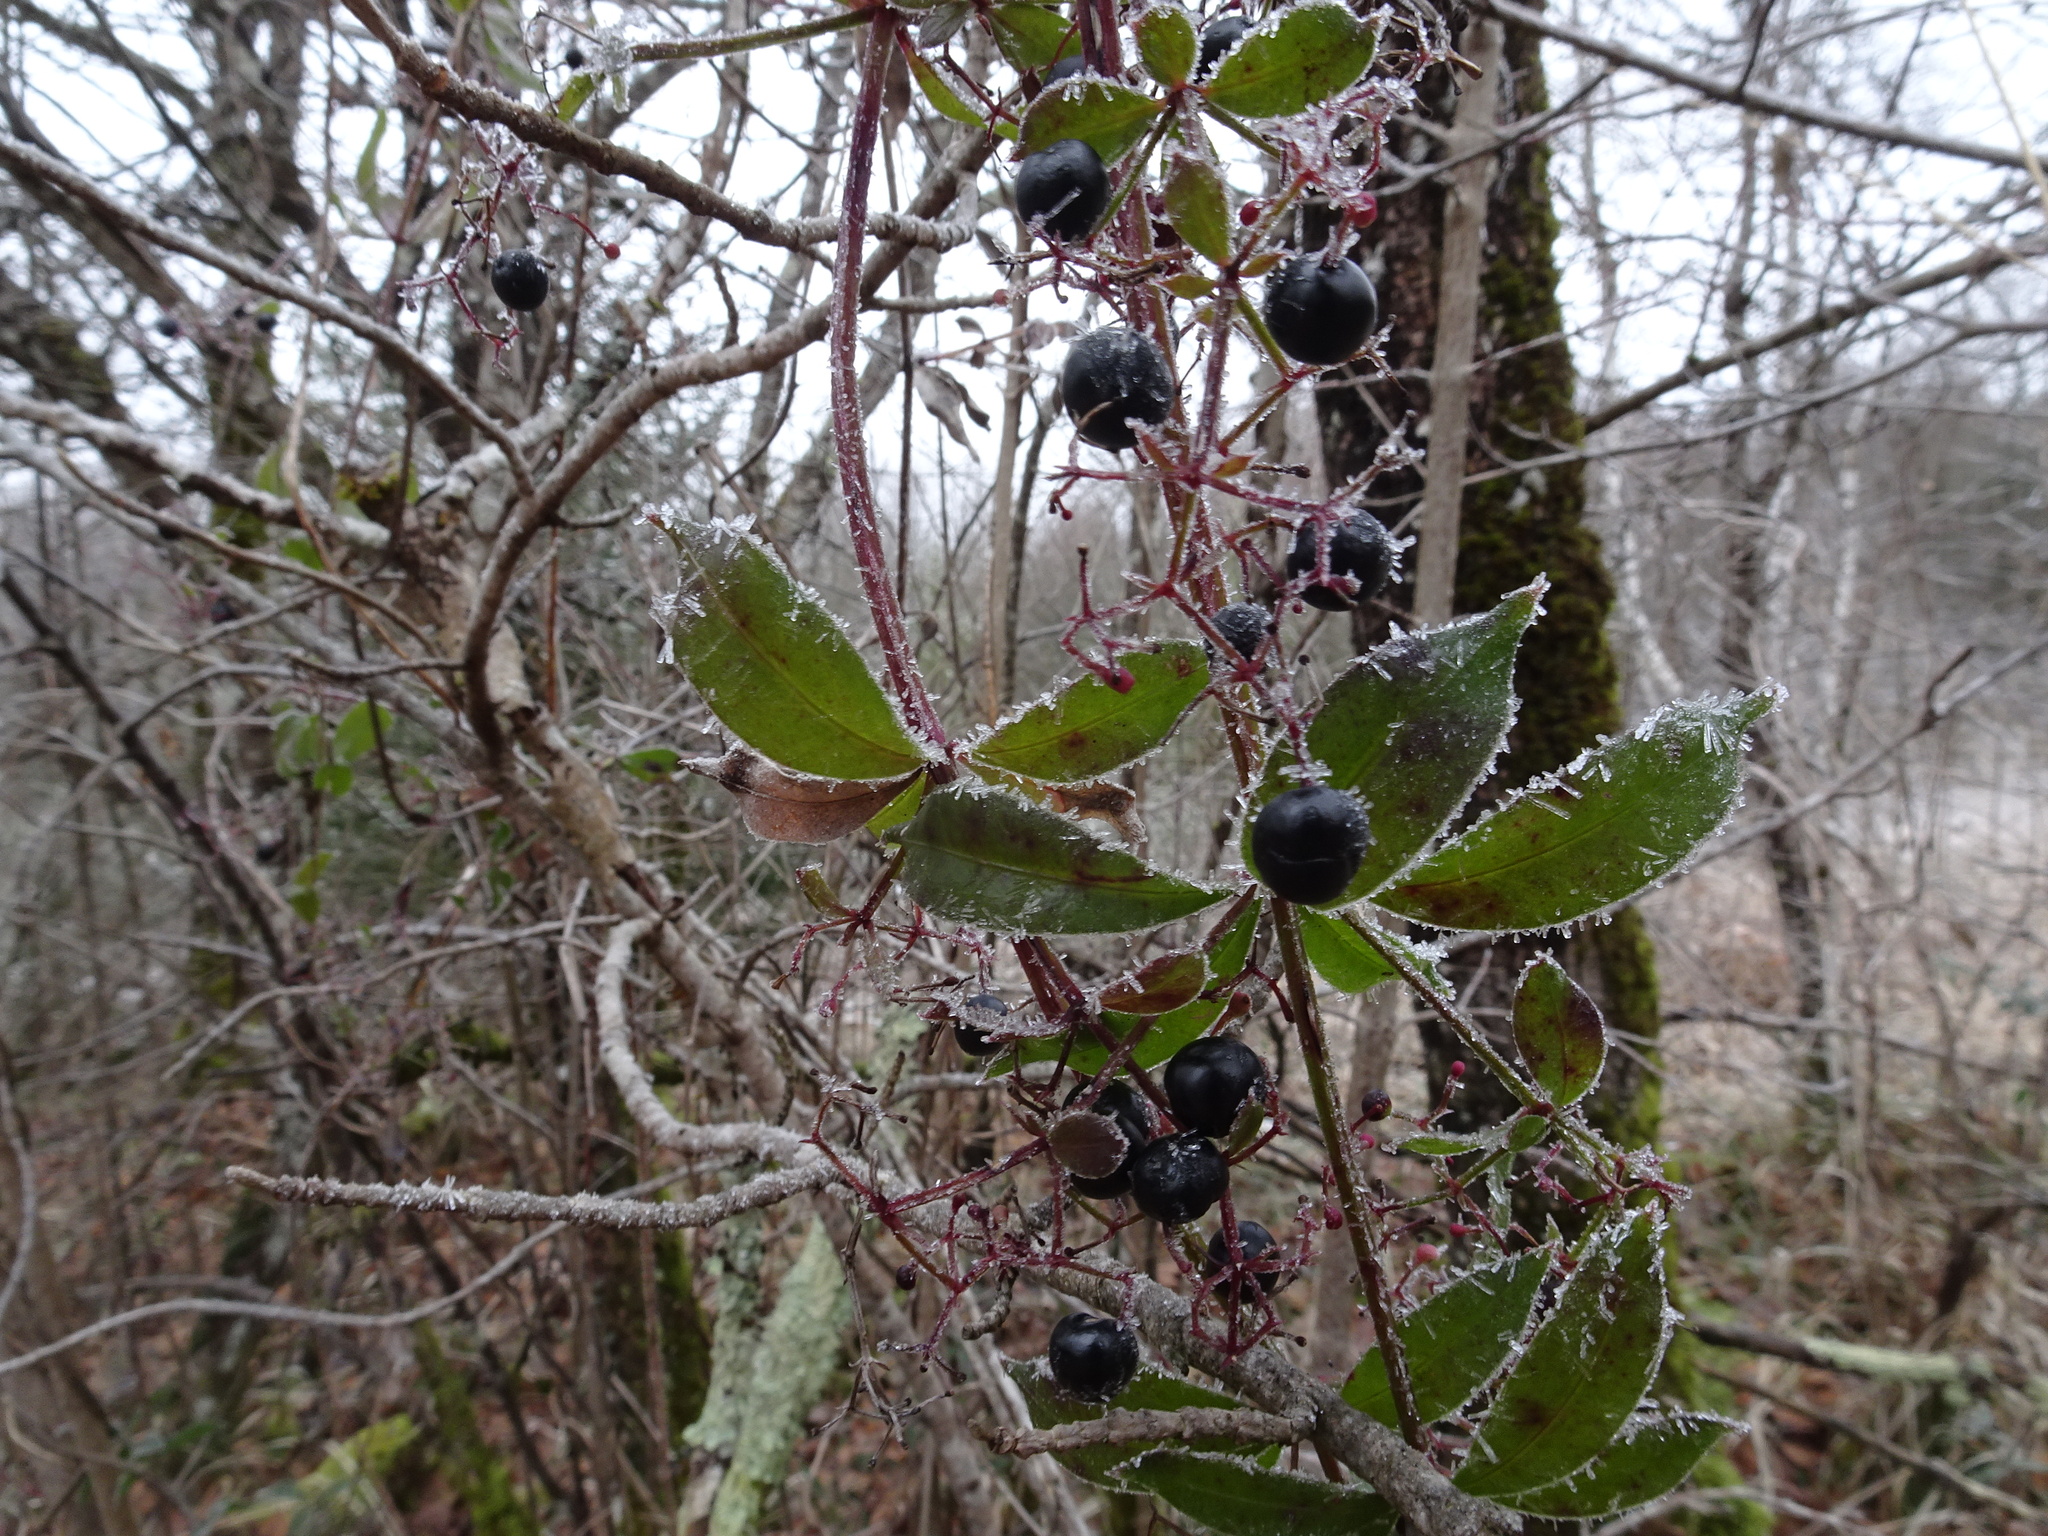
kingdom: Plantae
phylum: Tracheophyta
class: Magnoliopsida
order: Gentianales
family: Rubiaceae
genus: Rubia
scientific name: Rubia peregrina
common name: Wild madder
